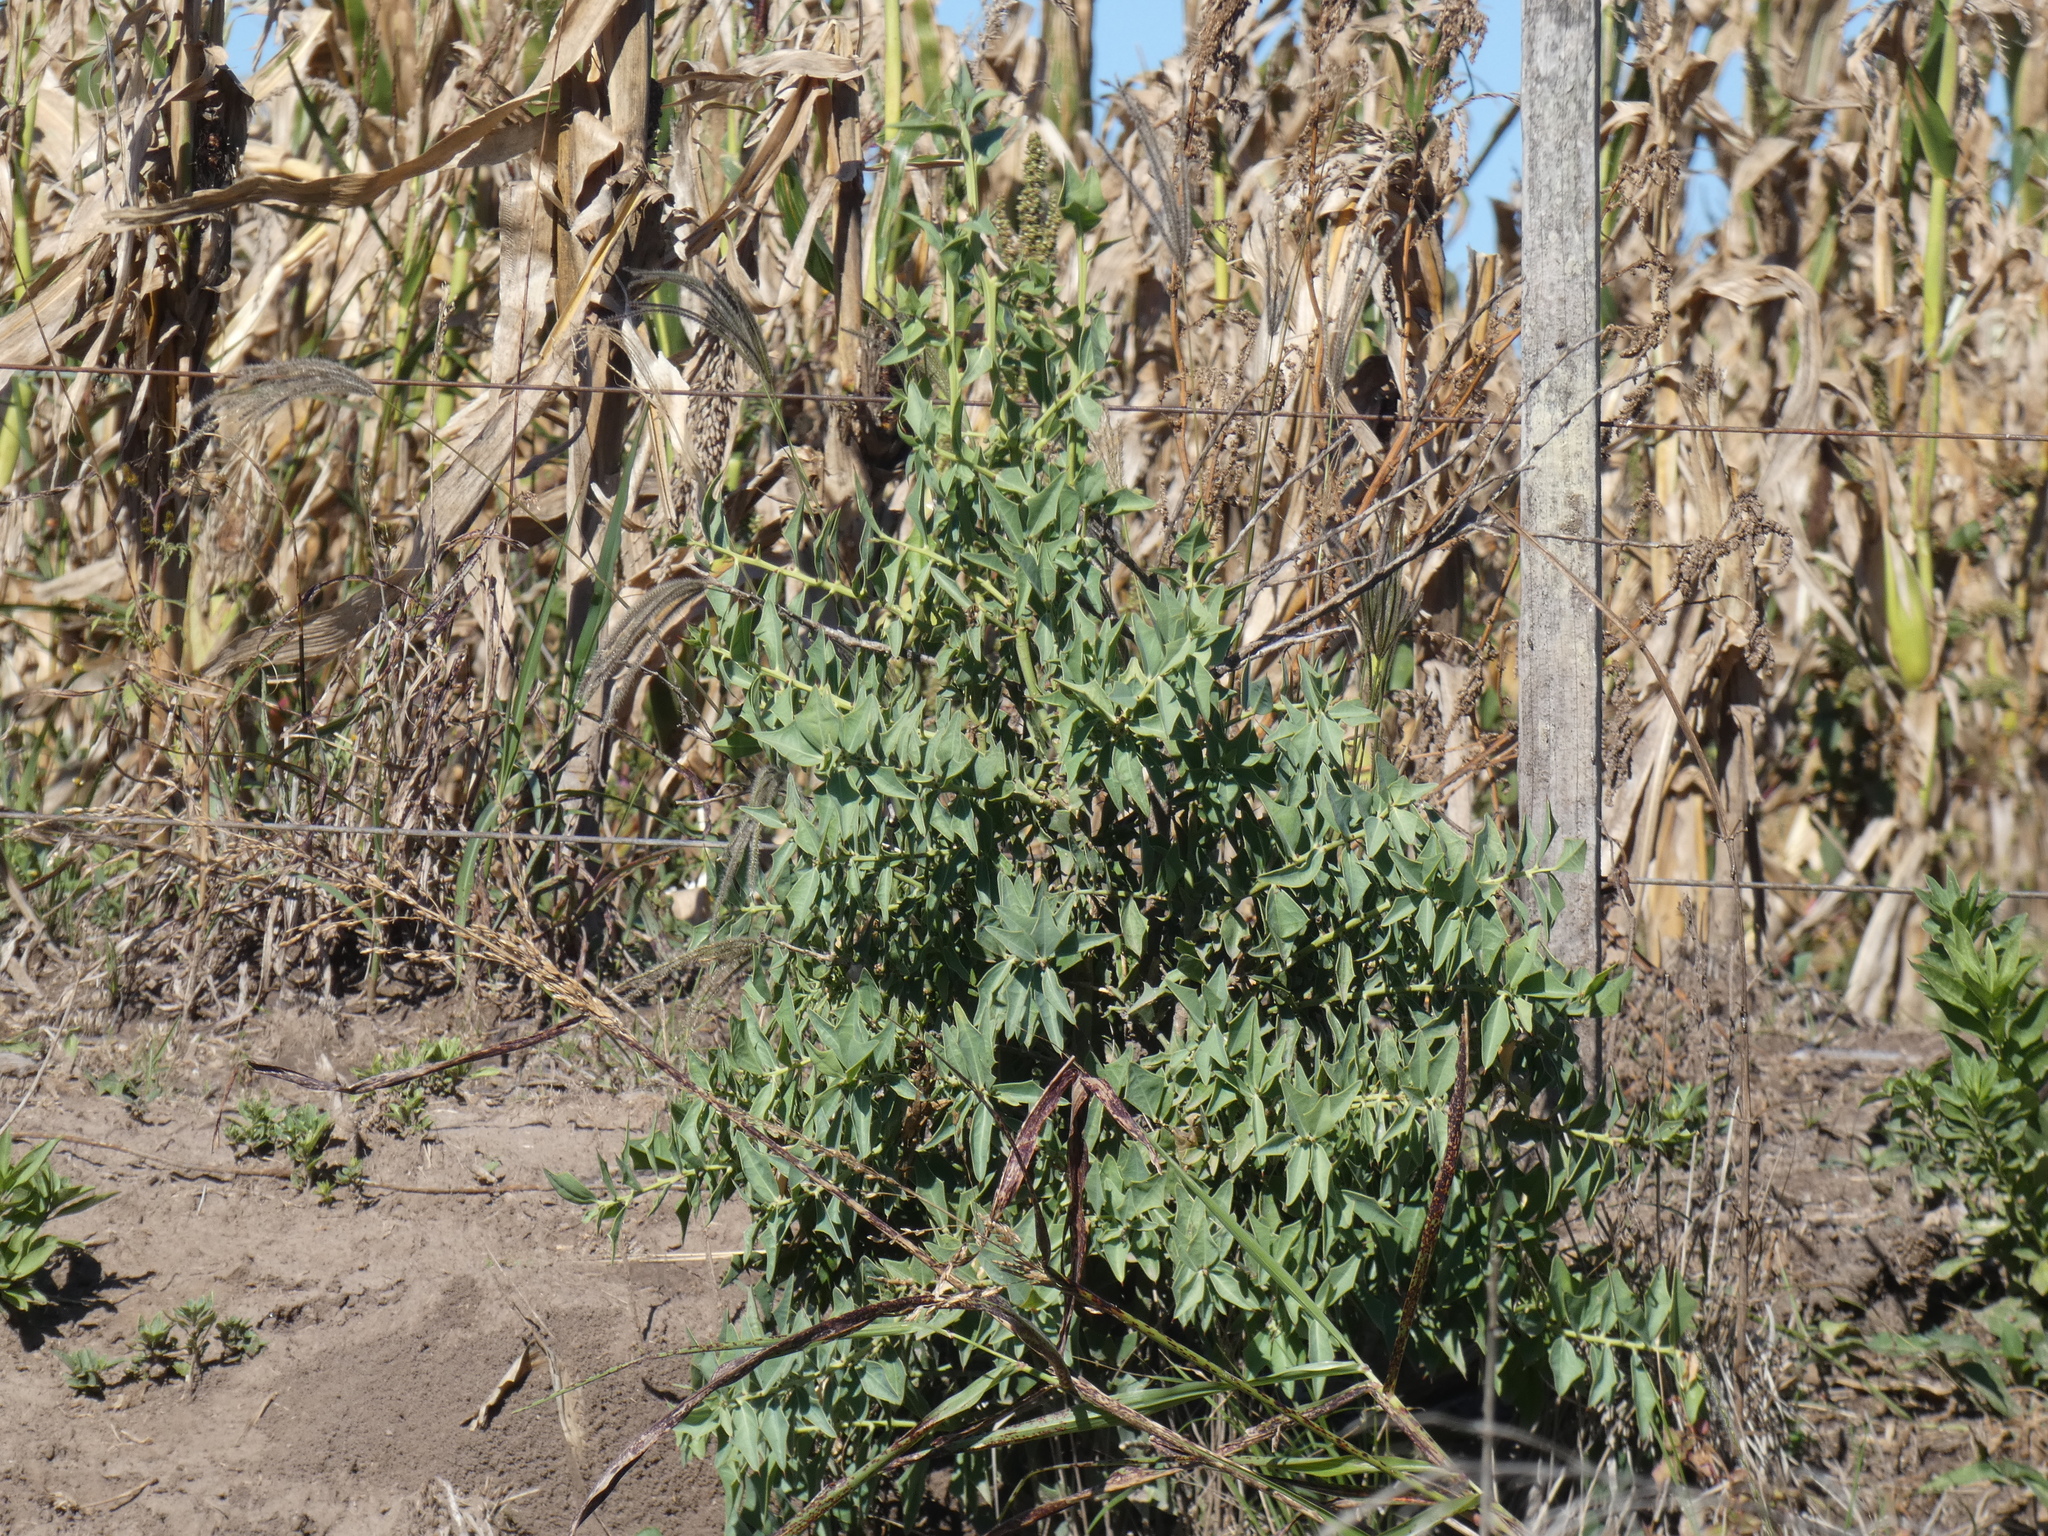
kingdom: Plantae
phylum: Tracheophyta
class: Magnoliopsida
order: Santalales
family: Cervantesiaceae
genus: Jodina
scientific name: Jodina rhombifolia
